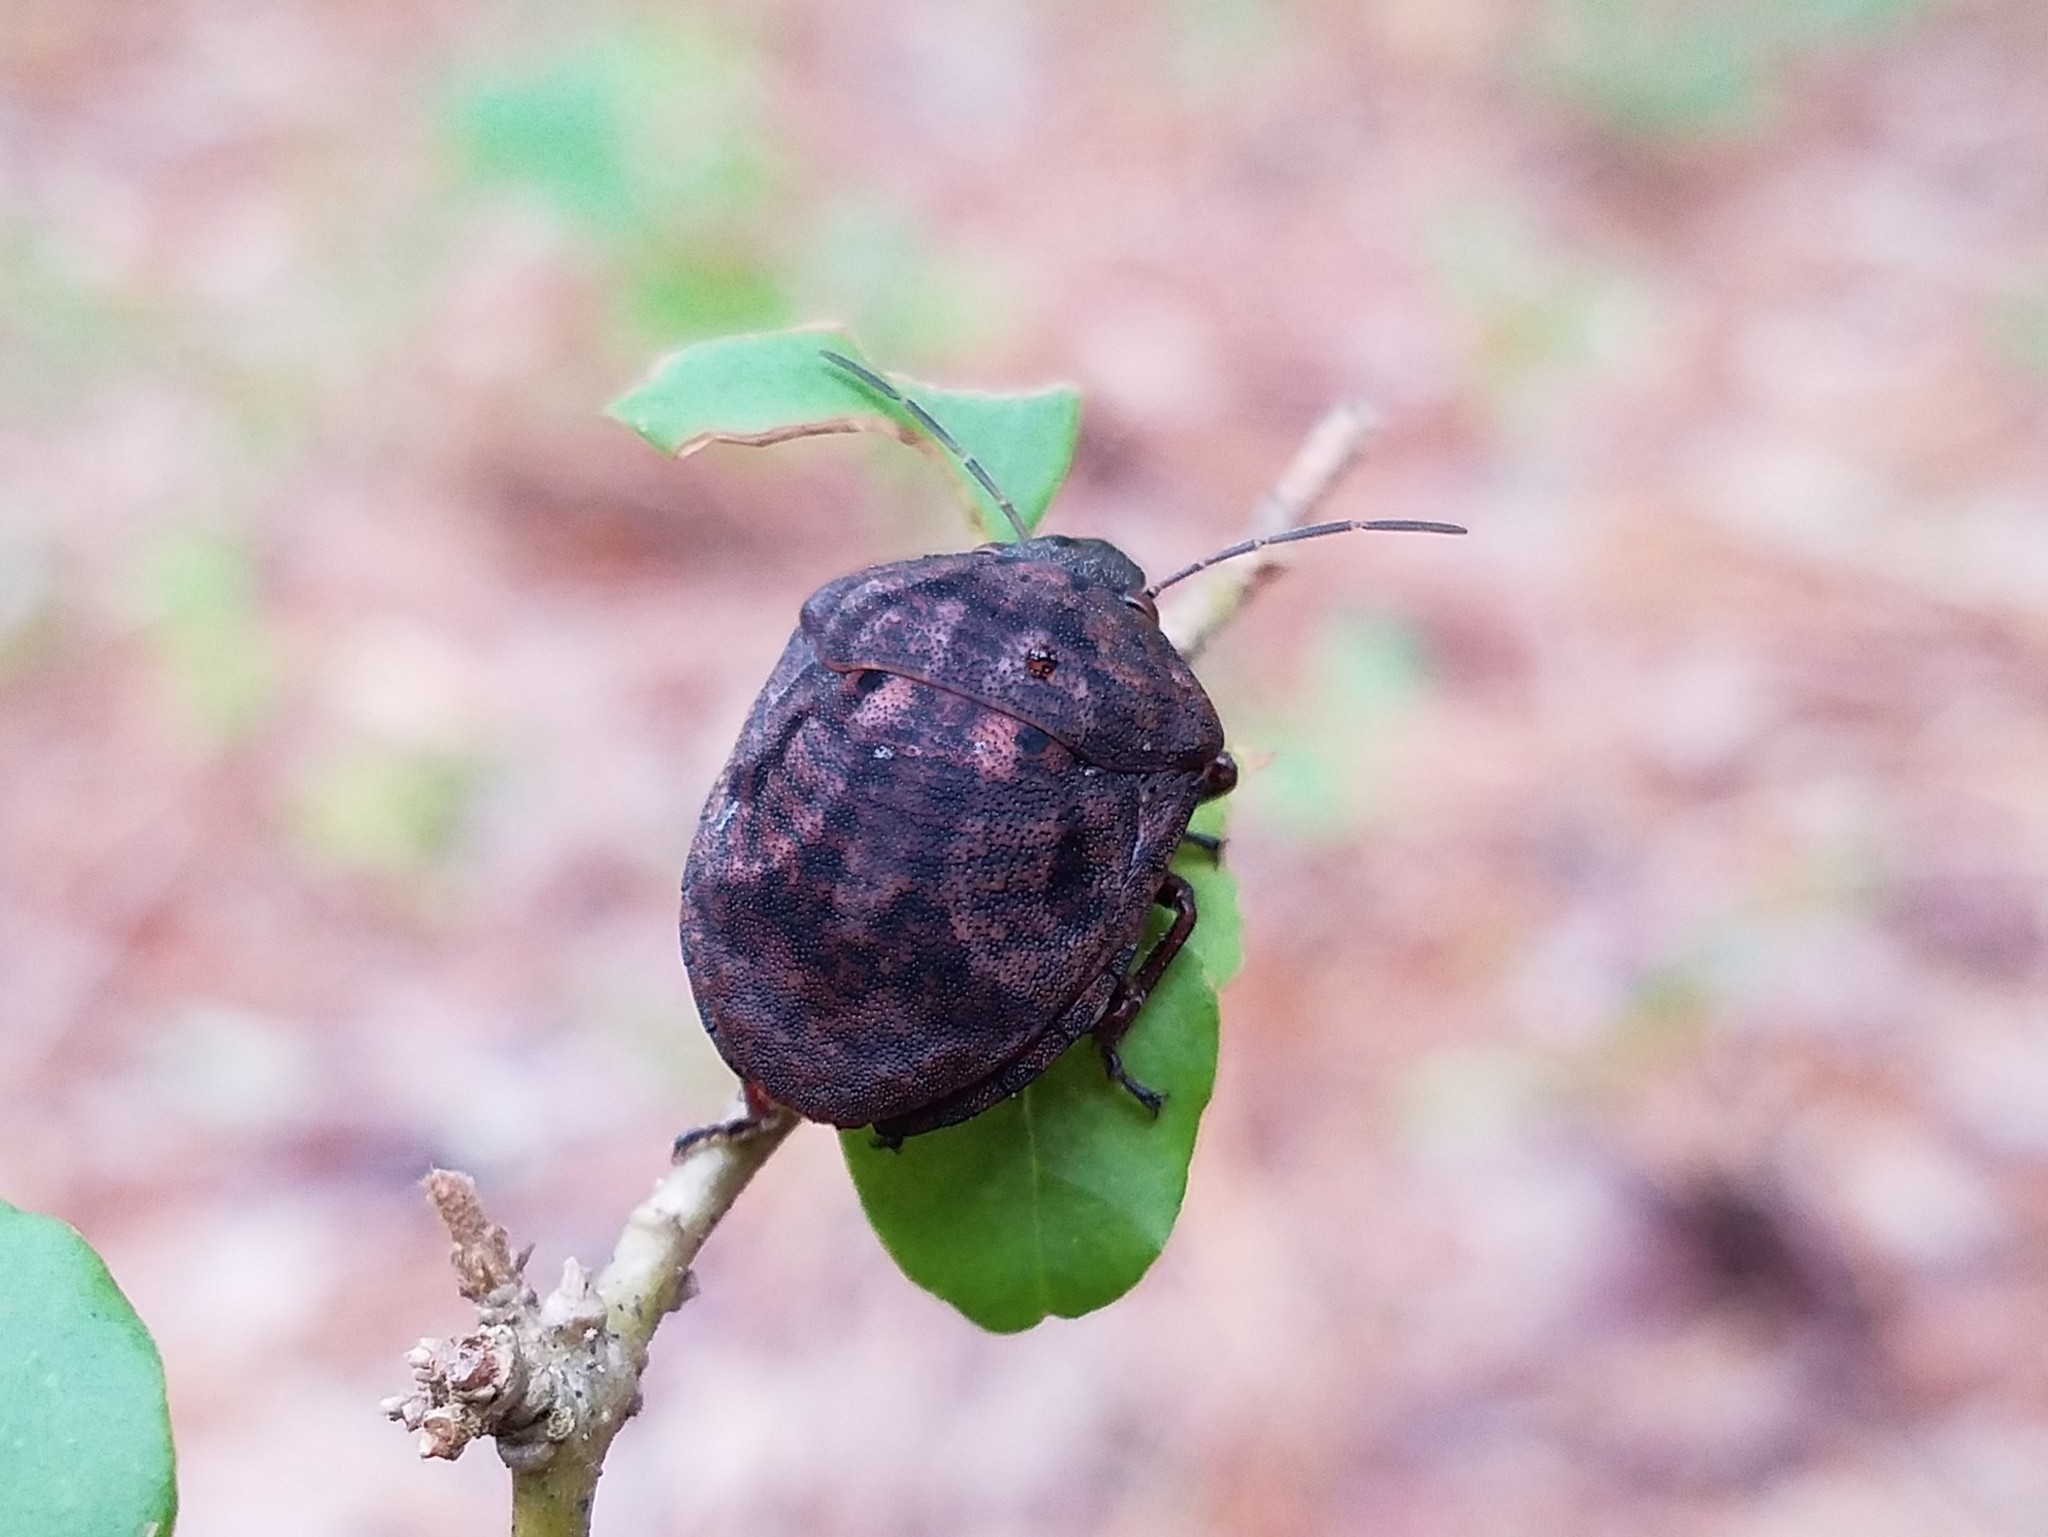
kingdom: Animalia
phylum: Arthropoda
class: Insecta
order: Hemiptera
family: Scutelleridae
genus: Tetyra
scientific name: Tetyra bipunctata
